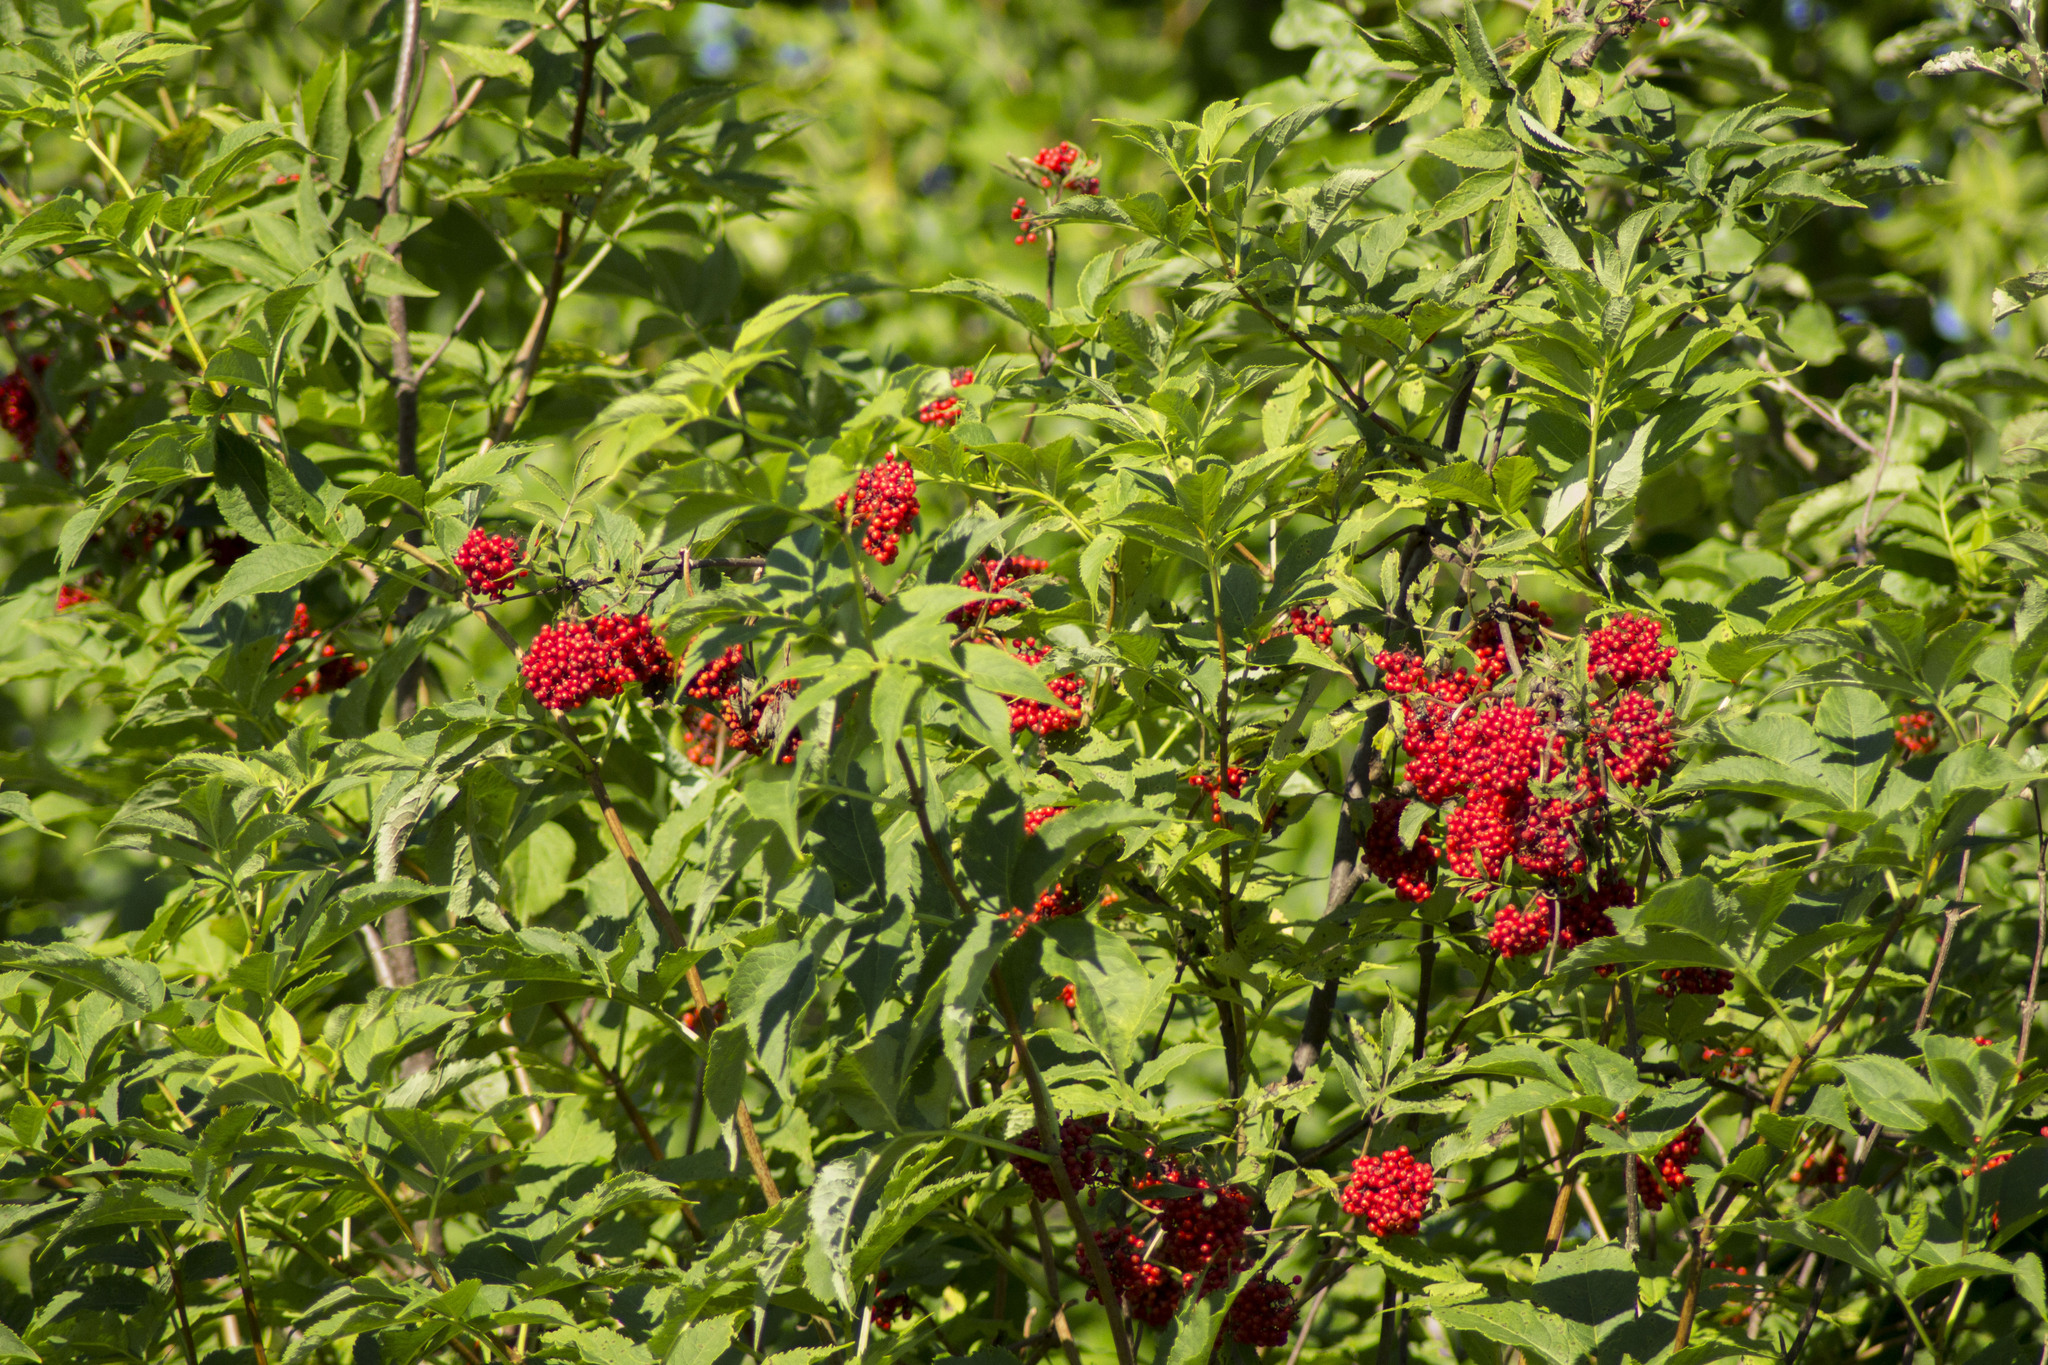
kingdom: Plantae
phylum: Tracheophyta
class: Magnoliopsida
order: Dipsacales
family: Viburnaceae
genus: Sambucus
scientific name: Sambucus racemosa
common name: Red-berried elder
